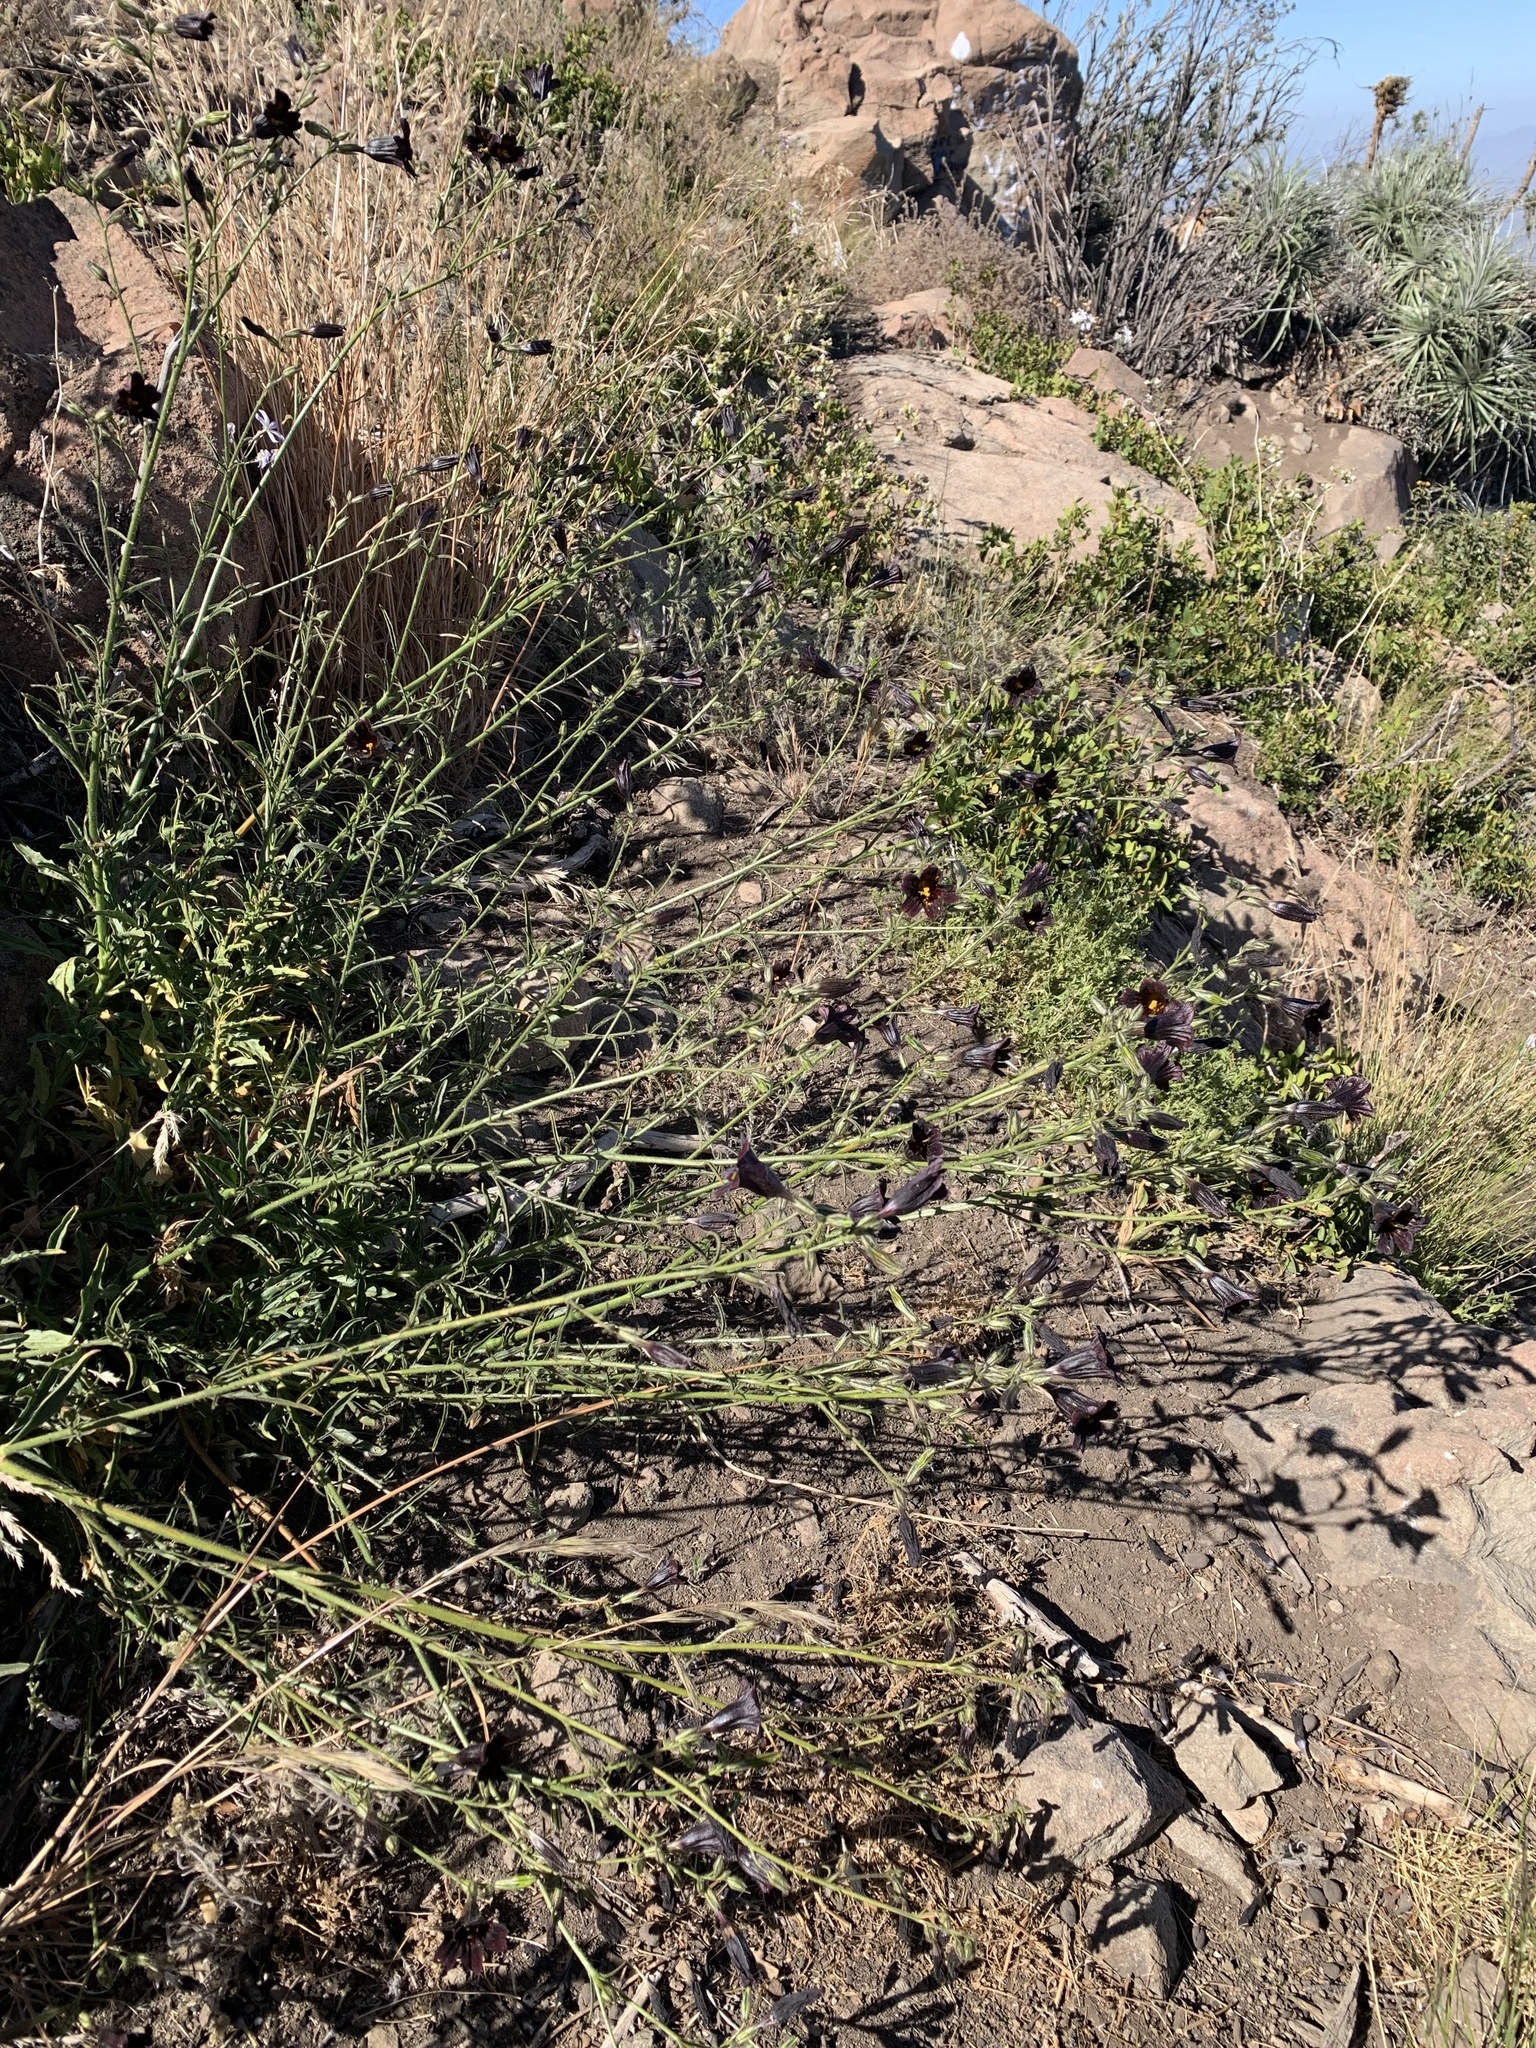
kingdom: Plantae
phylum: Tracheophyta
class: Magnoliopsida
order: Solanales
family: Solanaceae
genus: Salpiglossis
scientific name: Salpiglossis sinuata
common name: Painted-tongue
